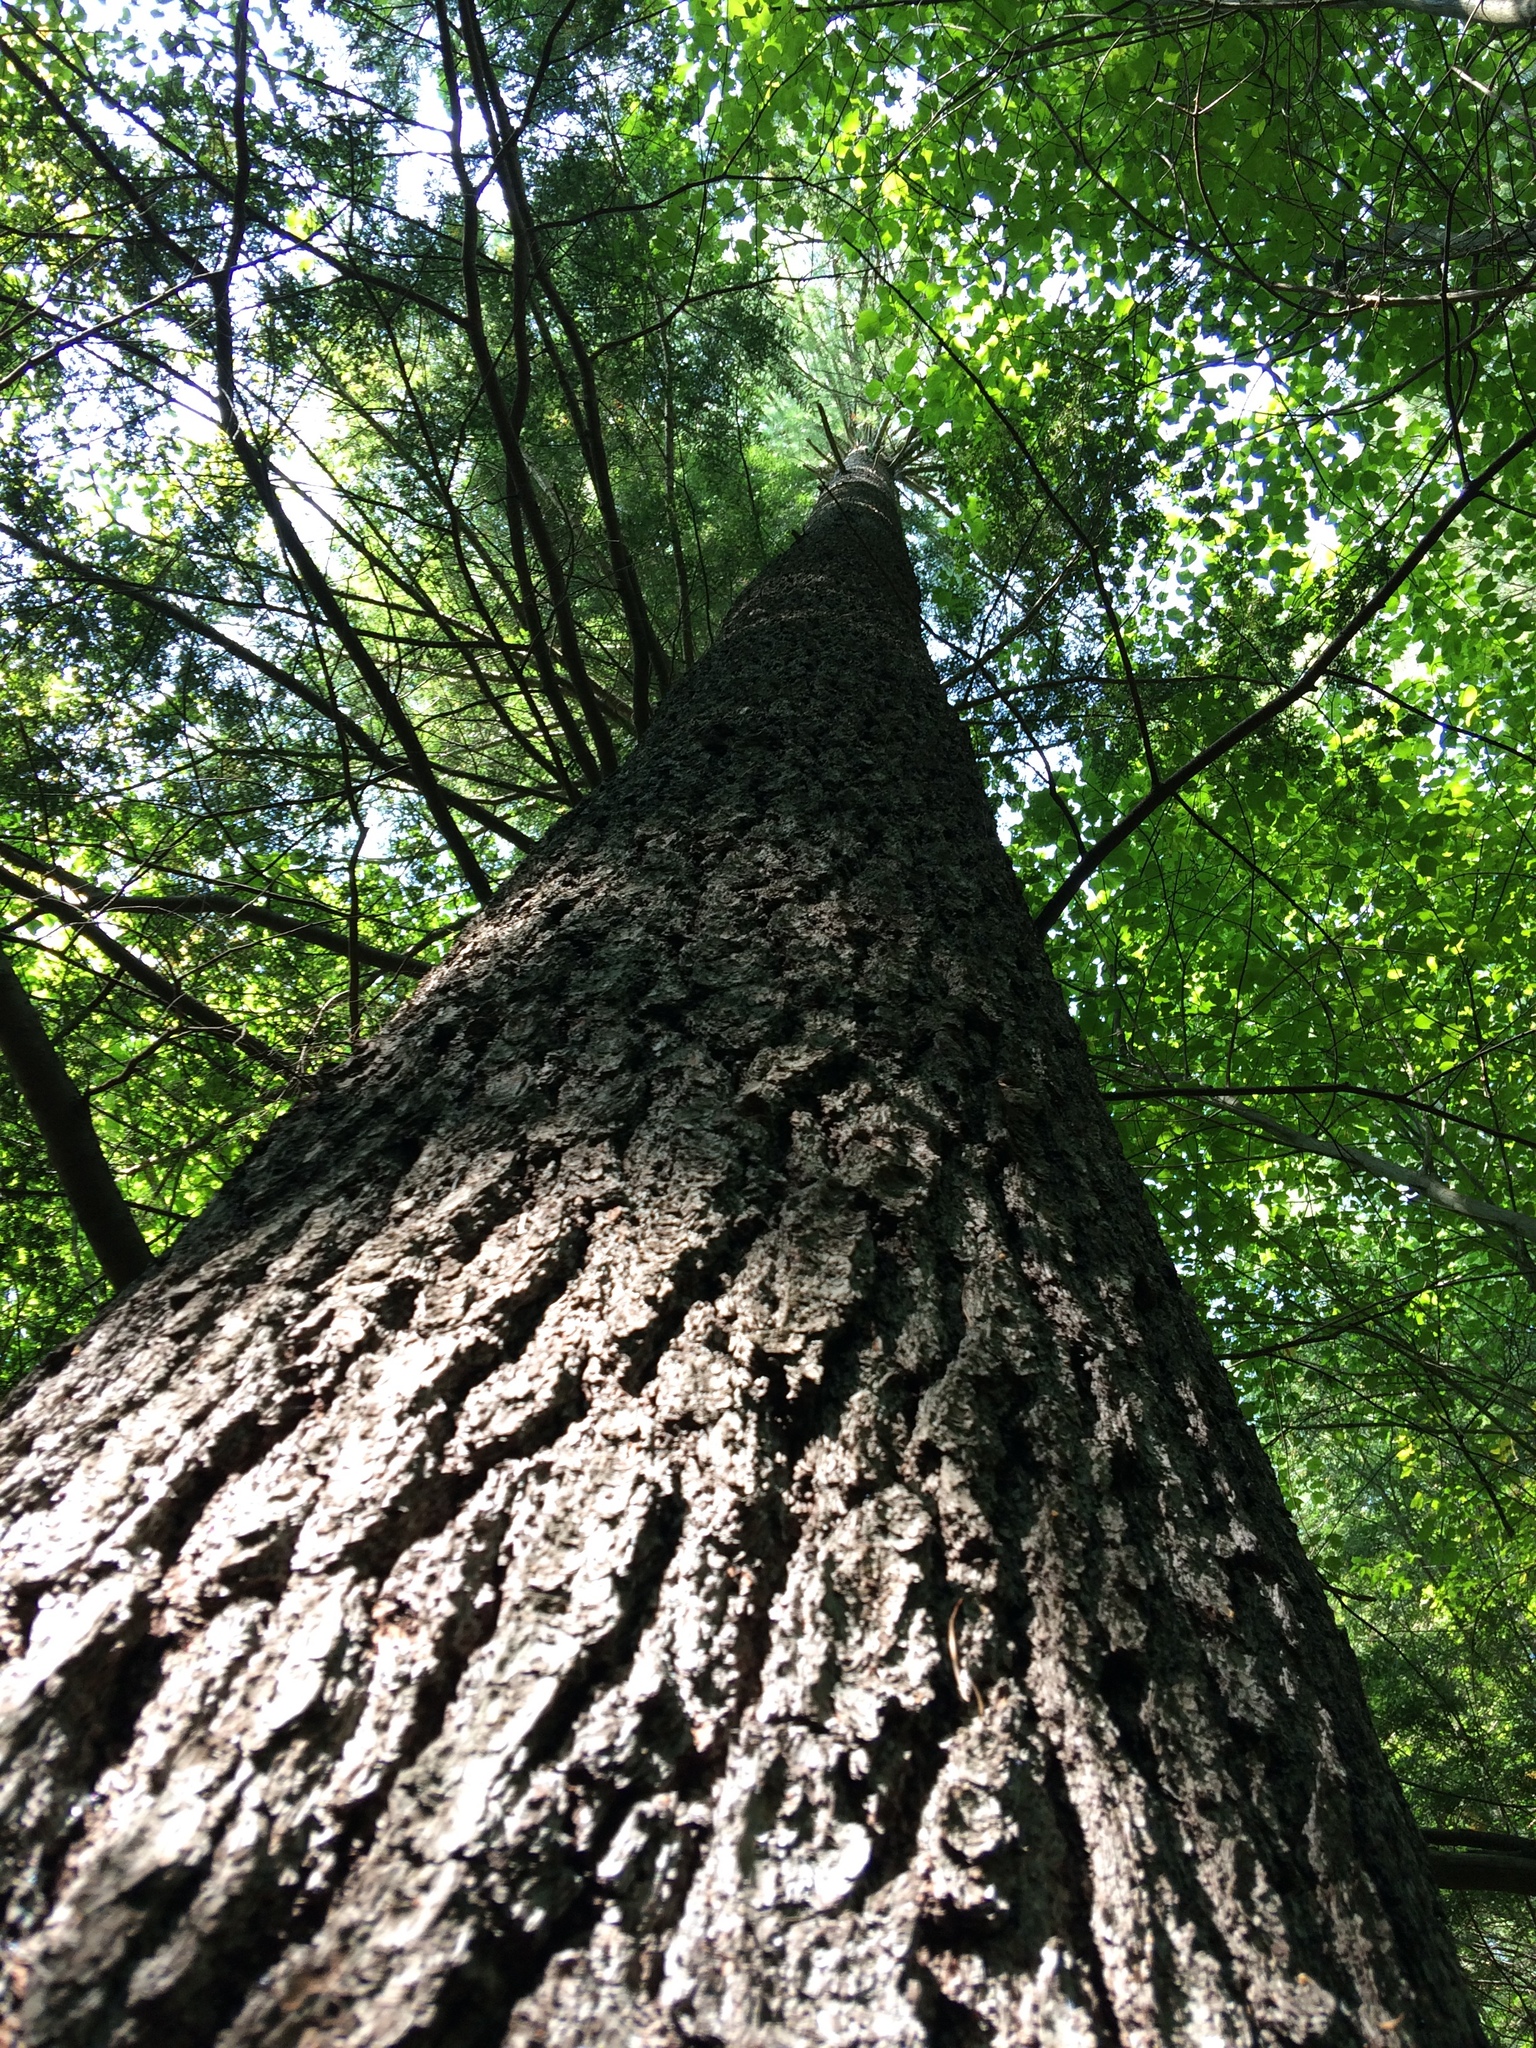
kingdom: Plantae
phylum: Tracheophyta
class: Pinopsida
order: Pinales
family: Pinaceae
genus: Pinus
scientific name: Pinus strobus
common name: Weymouth pine
